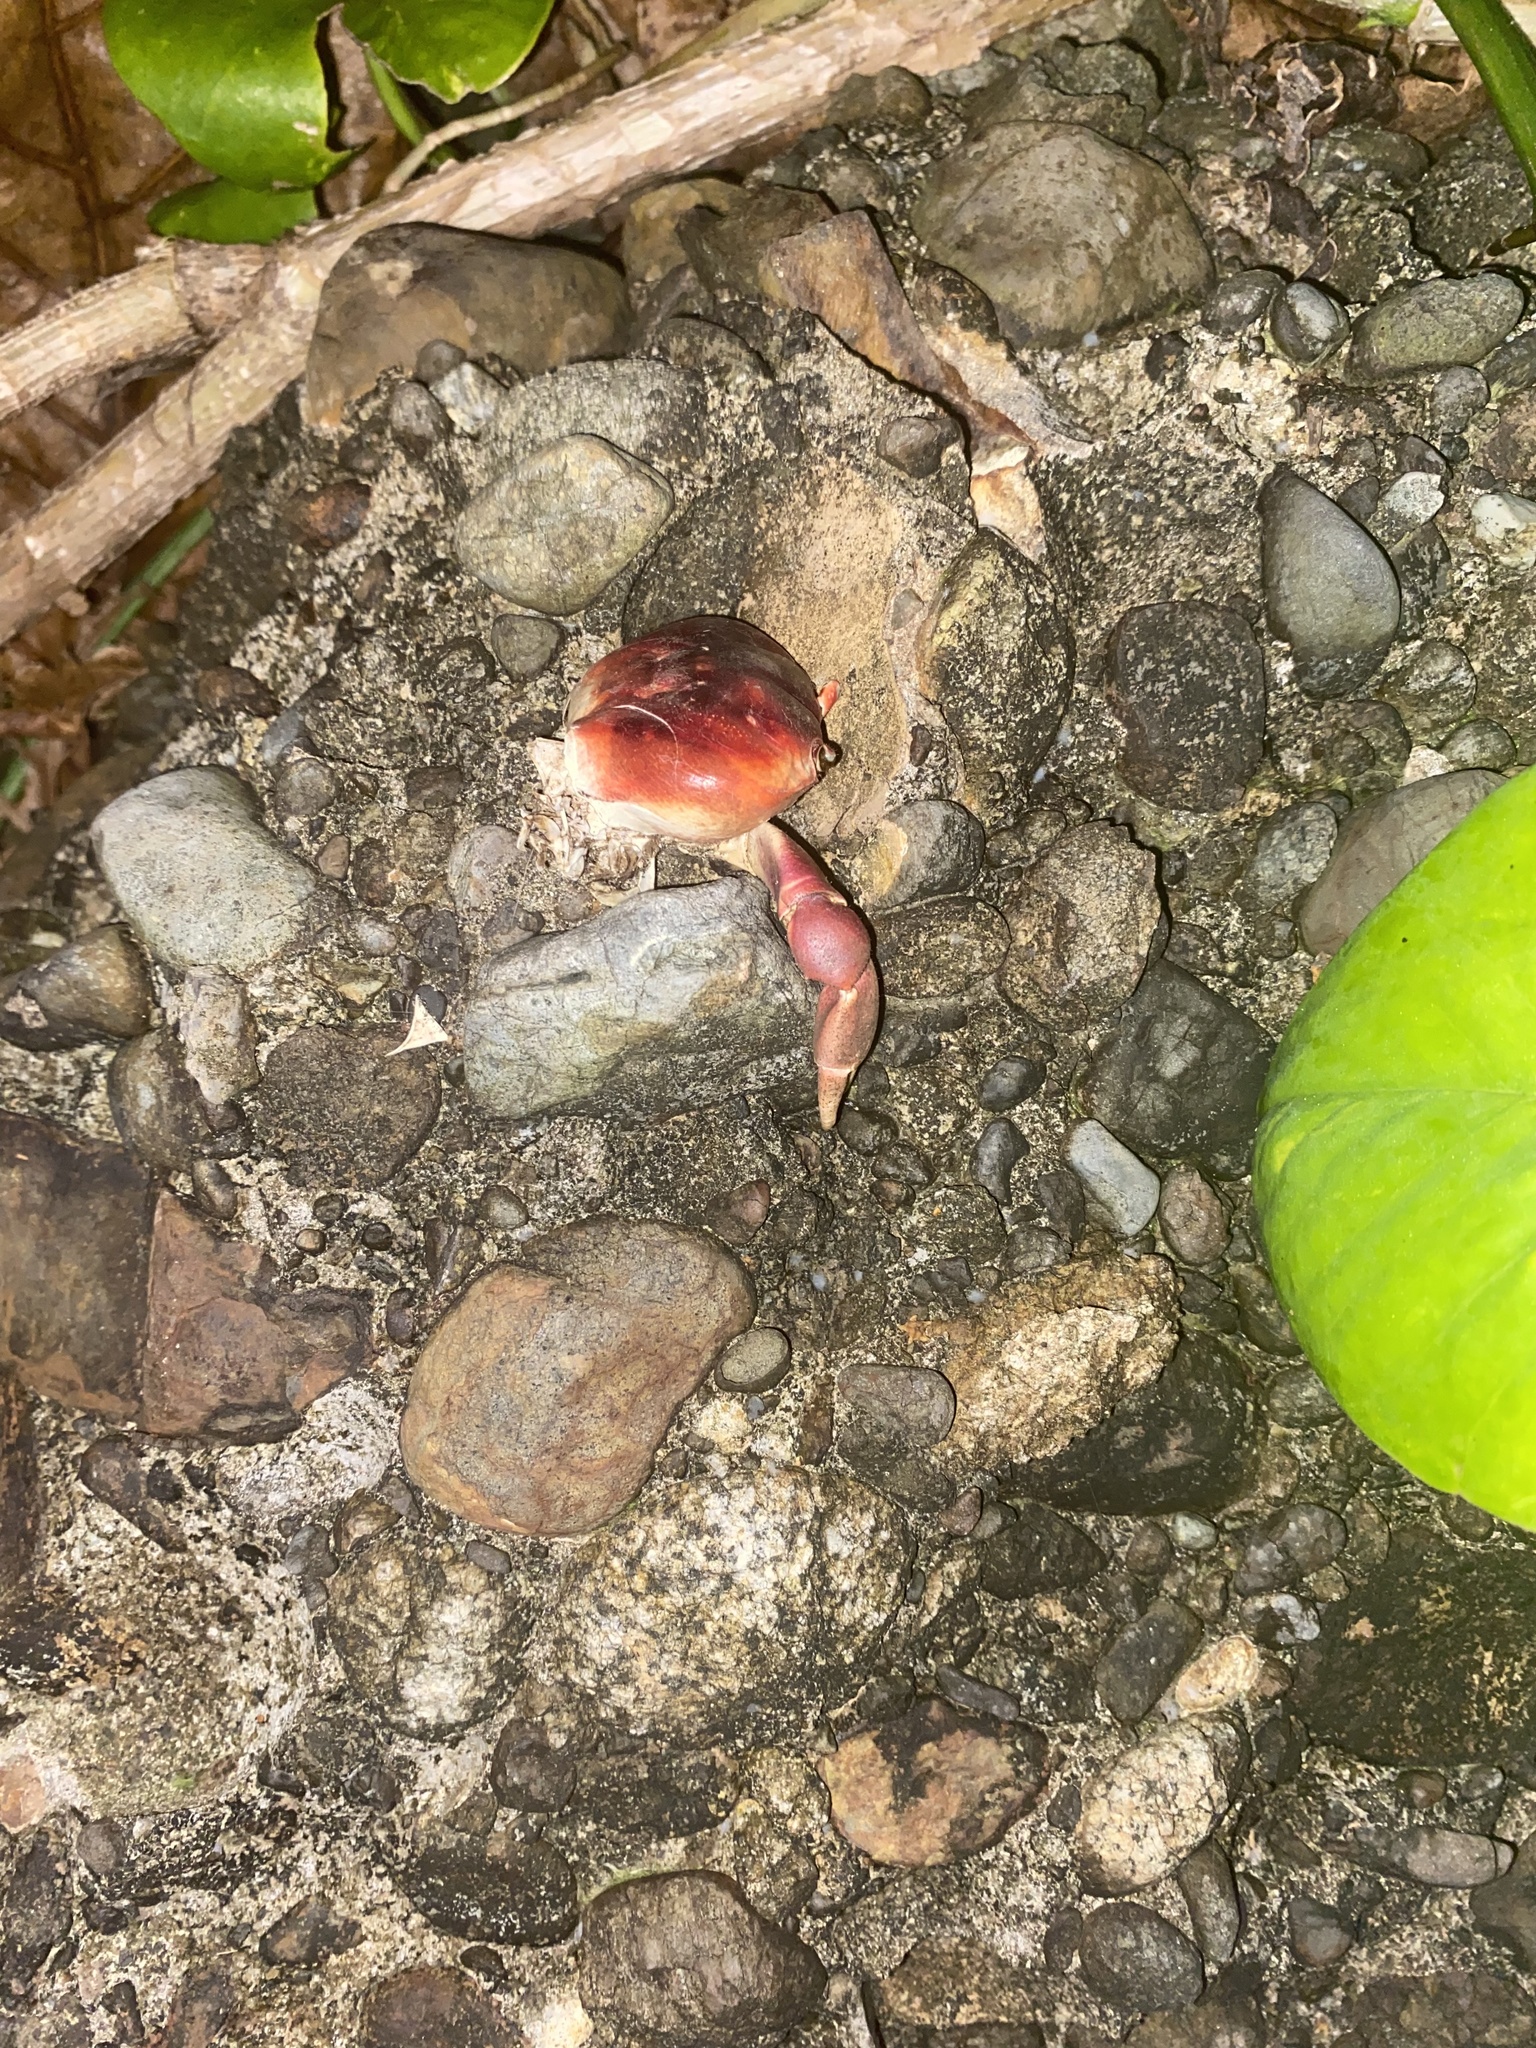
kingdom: Animalia
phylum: Arthropoda
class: Malacostraca
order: Decapoda
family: Gecarcinidae
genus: Gecarcinus
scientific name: Gecarcinus lateralis
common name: Bermuda land crab
